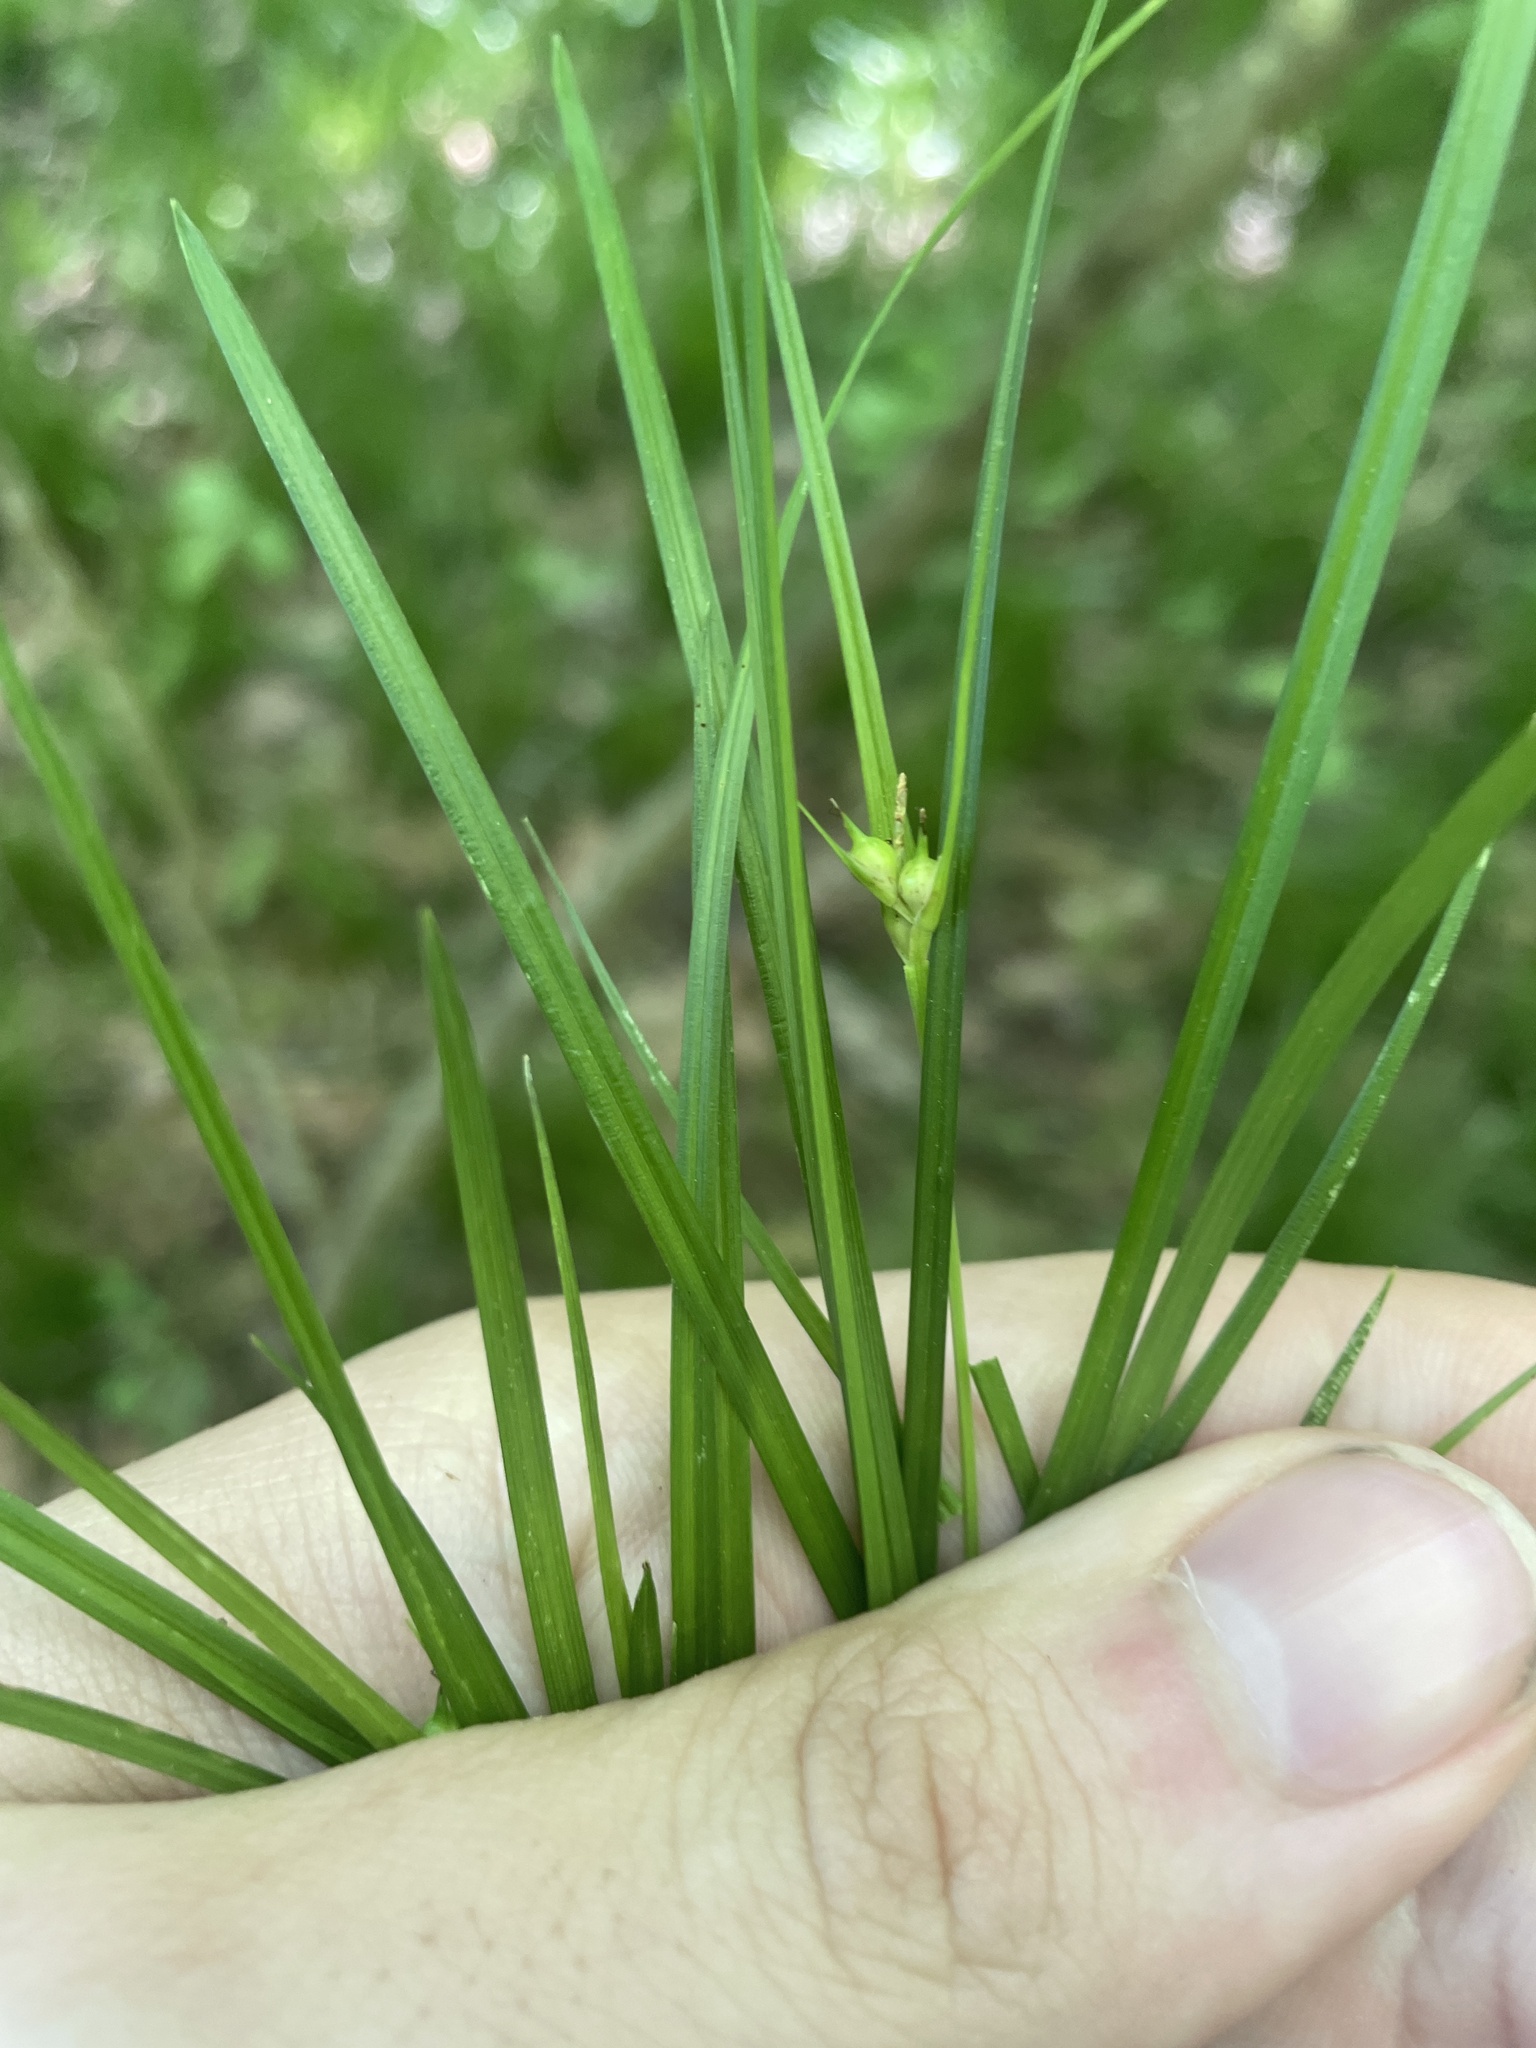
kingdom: Plantae
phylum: Tracheophyta
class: Liliopsida
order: Poales
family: Cyperaceae
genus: Carex
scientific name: Carex jamesii
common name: Grass sedge
